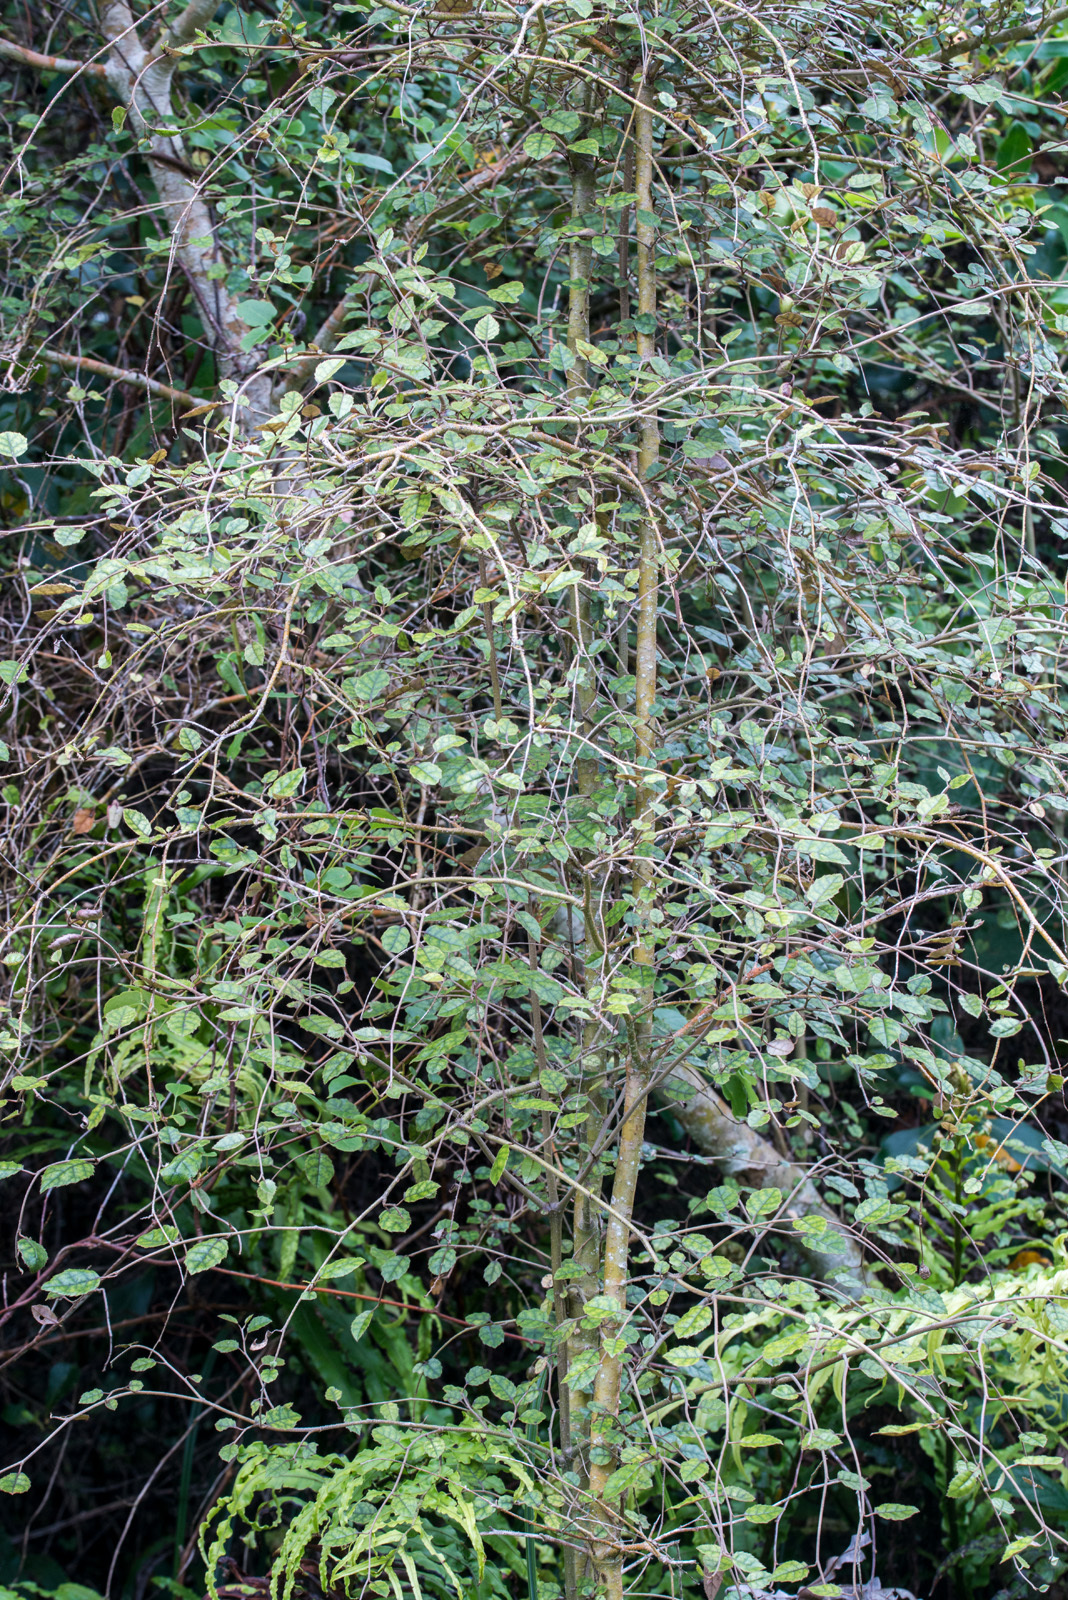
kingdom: Plantae
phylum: Tracheophyta
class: Magnoliopsida
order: Asterales
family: Rousseaceae
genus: Carpodetus
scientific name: Carpodetus serratus
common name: White mapau
